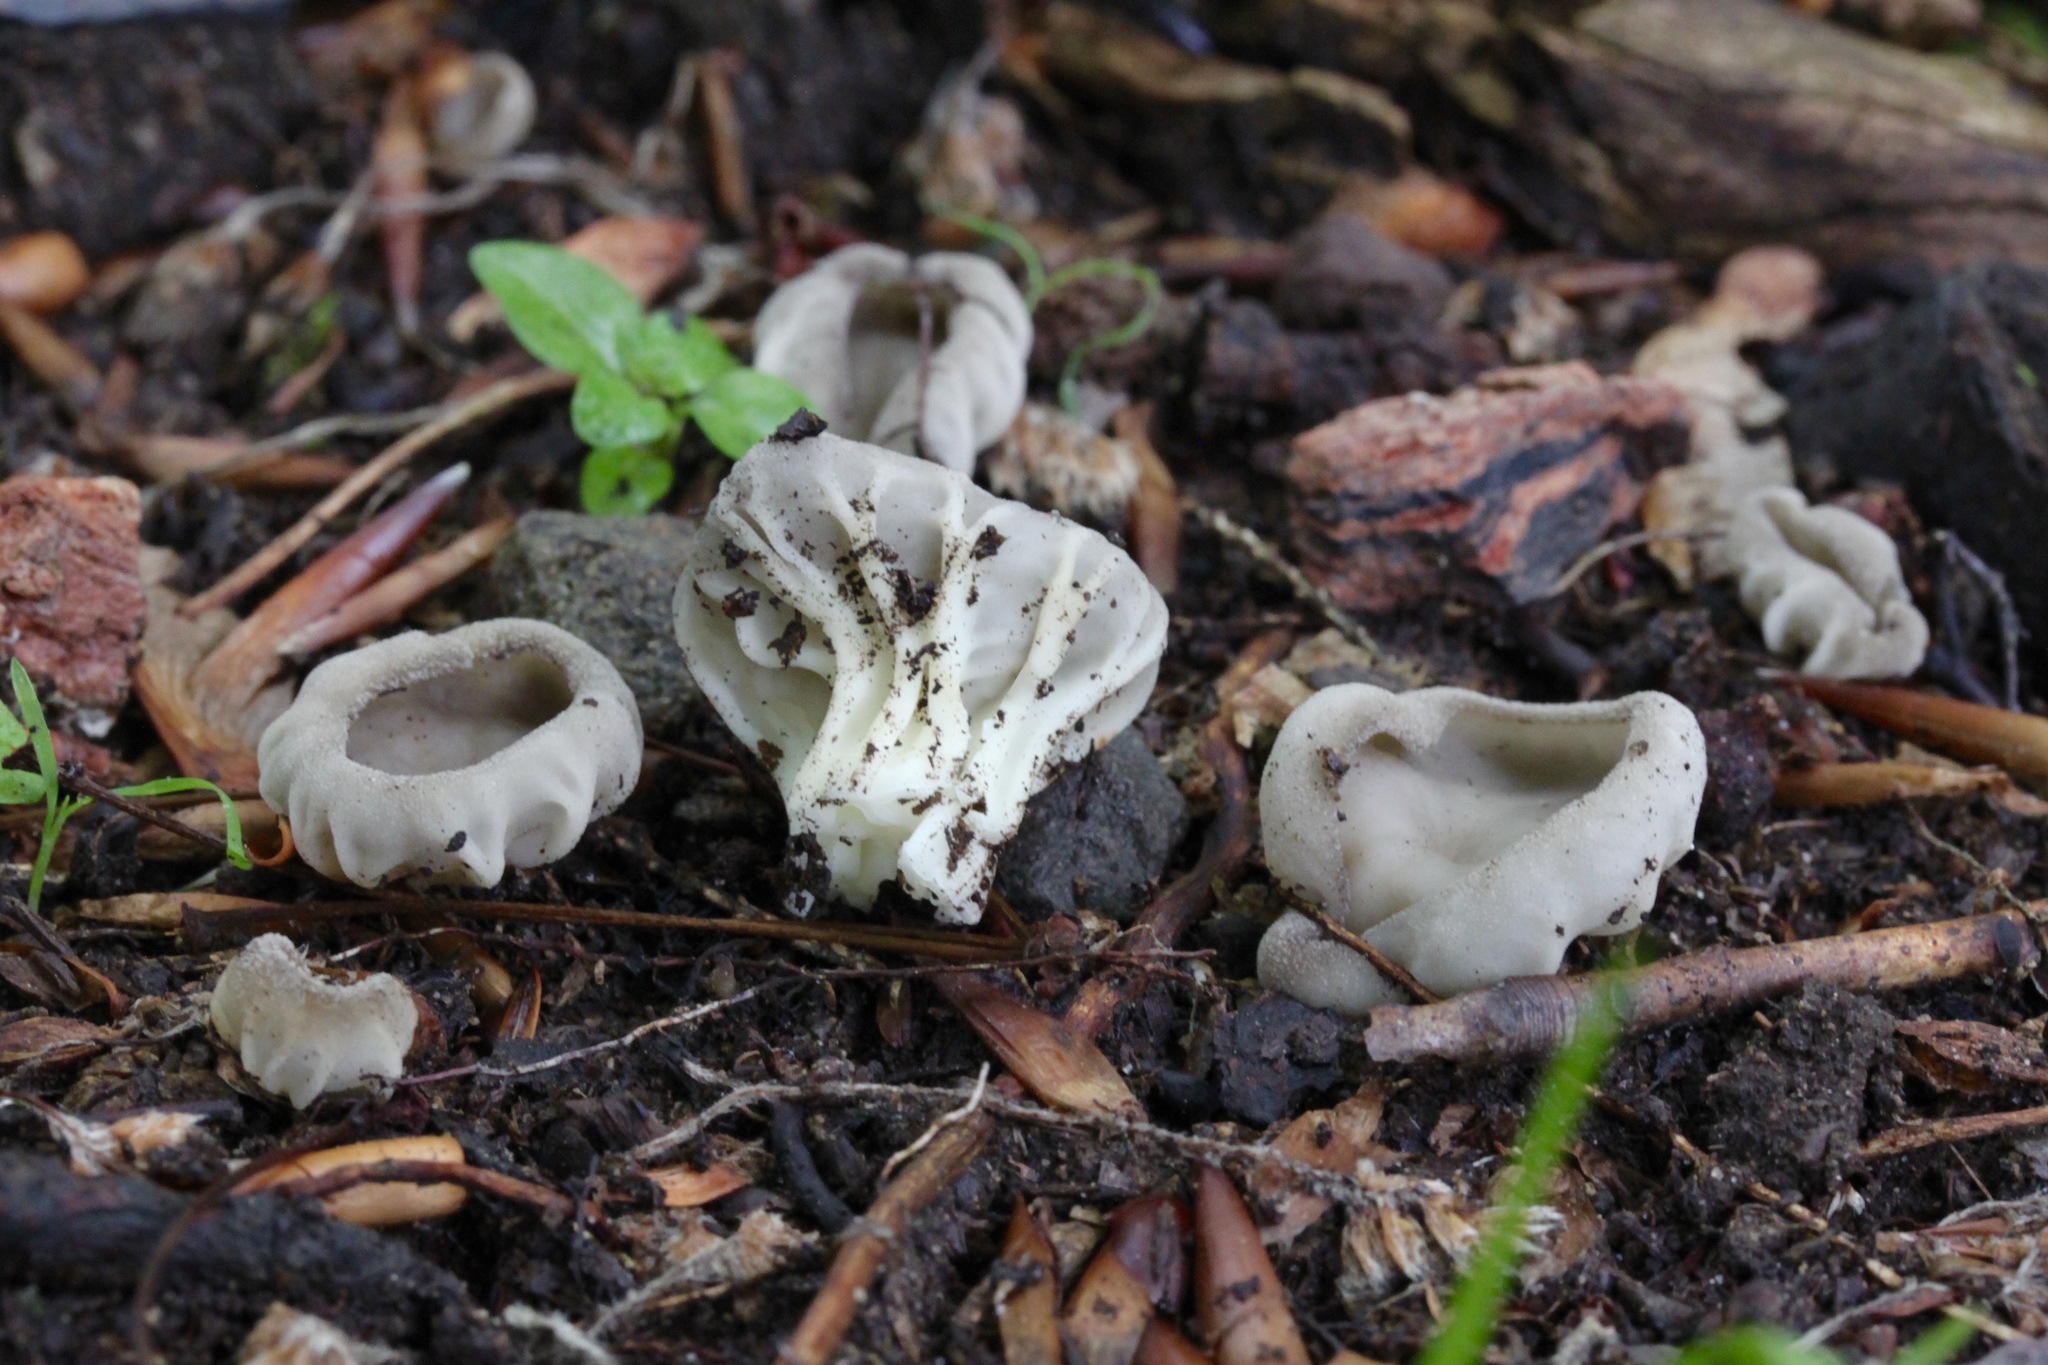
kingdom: Fungi
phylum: Ascomycota
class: Pezizomycetes
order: Pezizales
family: Helvellaceae
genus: Helvella
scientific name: Helvella costifera
